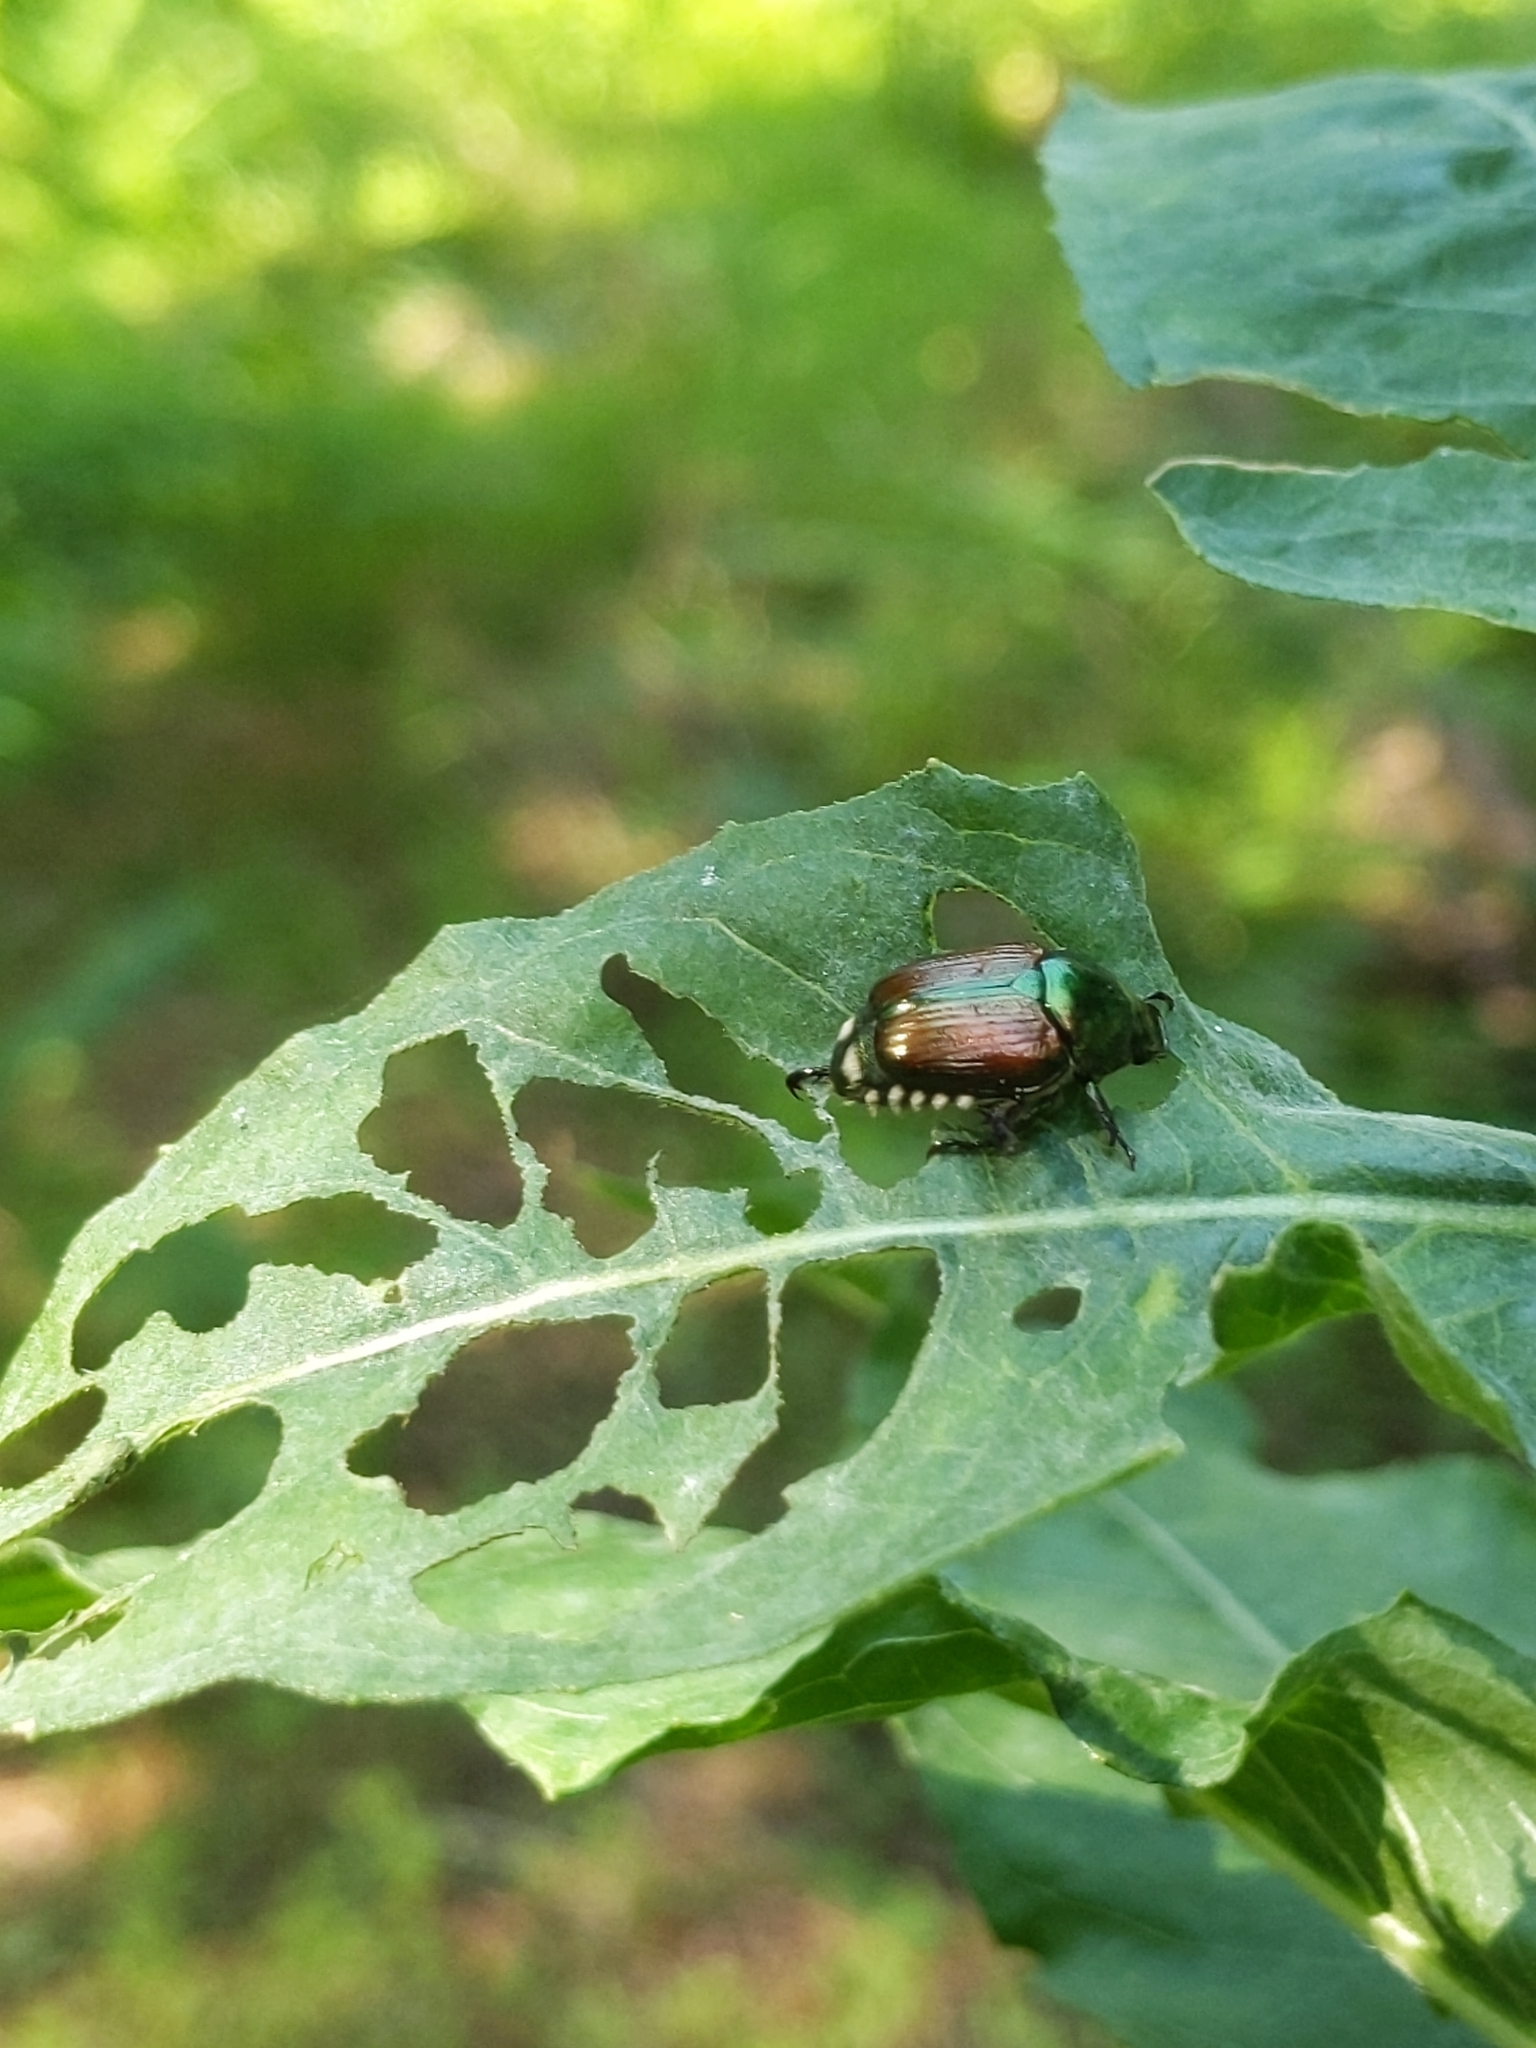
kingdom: Animalia
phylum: Arthropoda
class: Insecta
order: Coleoptera
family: Scarabaeidae
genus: Popillia
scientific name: Popillia japonica
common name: Japanese beetle
